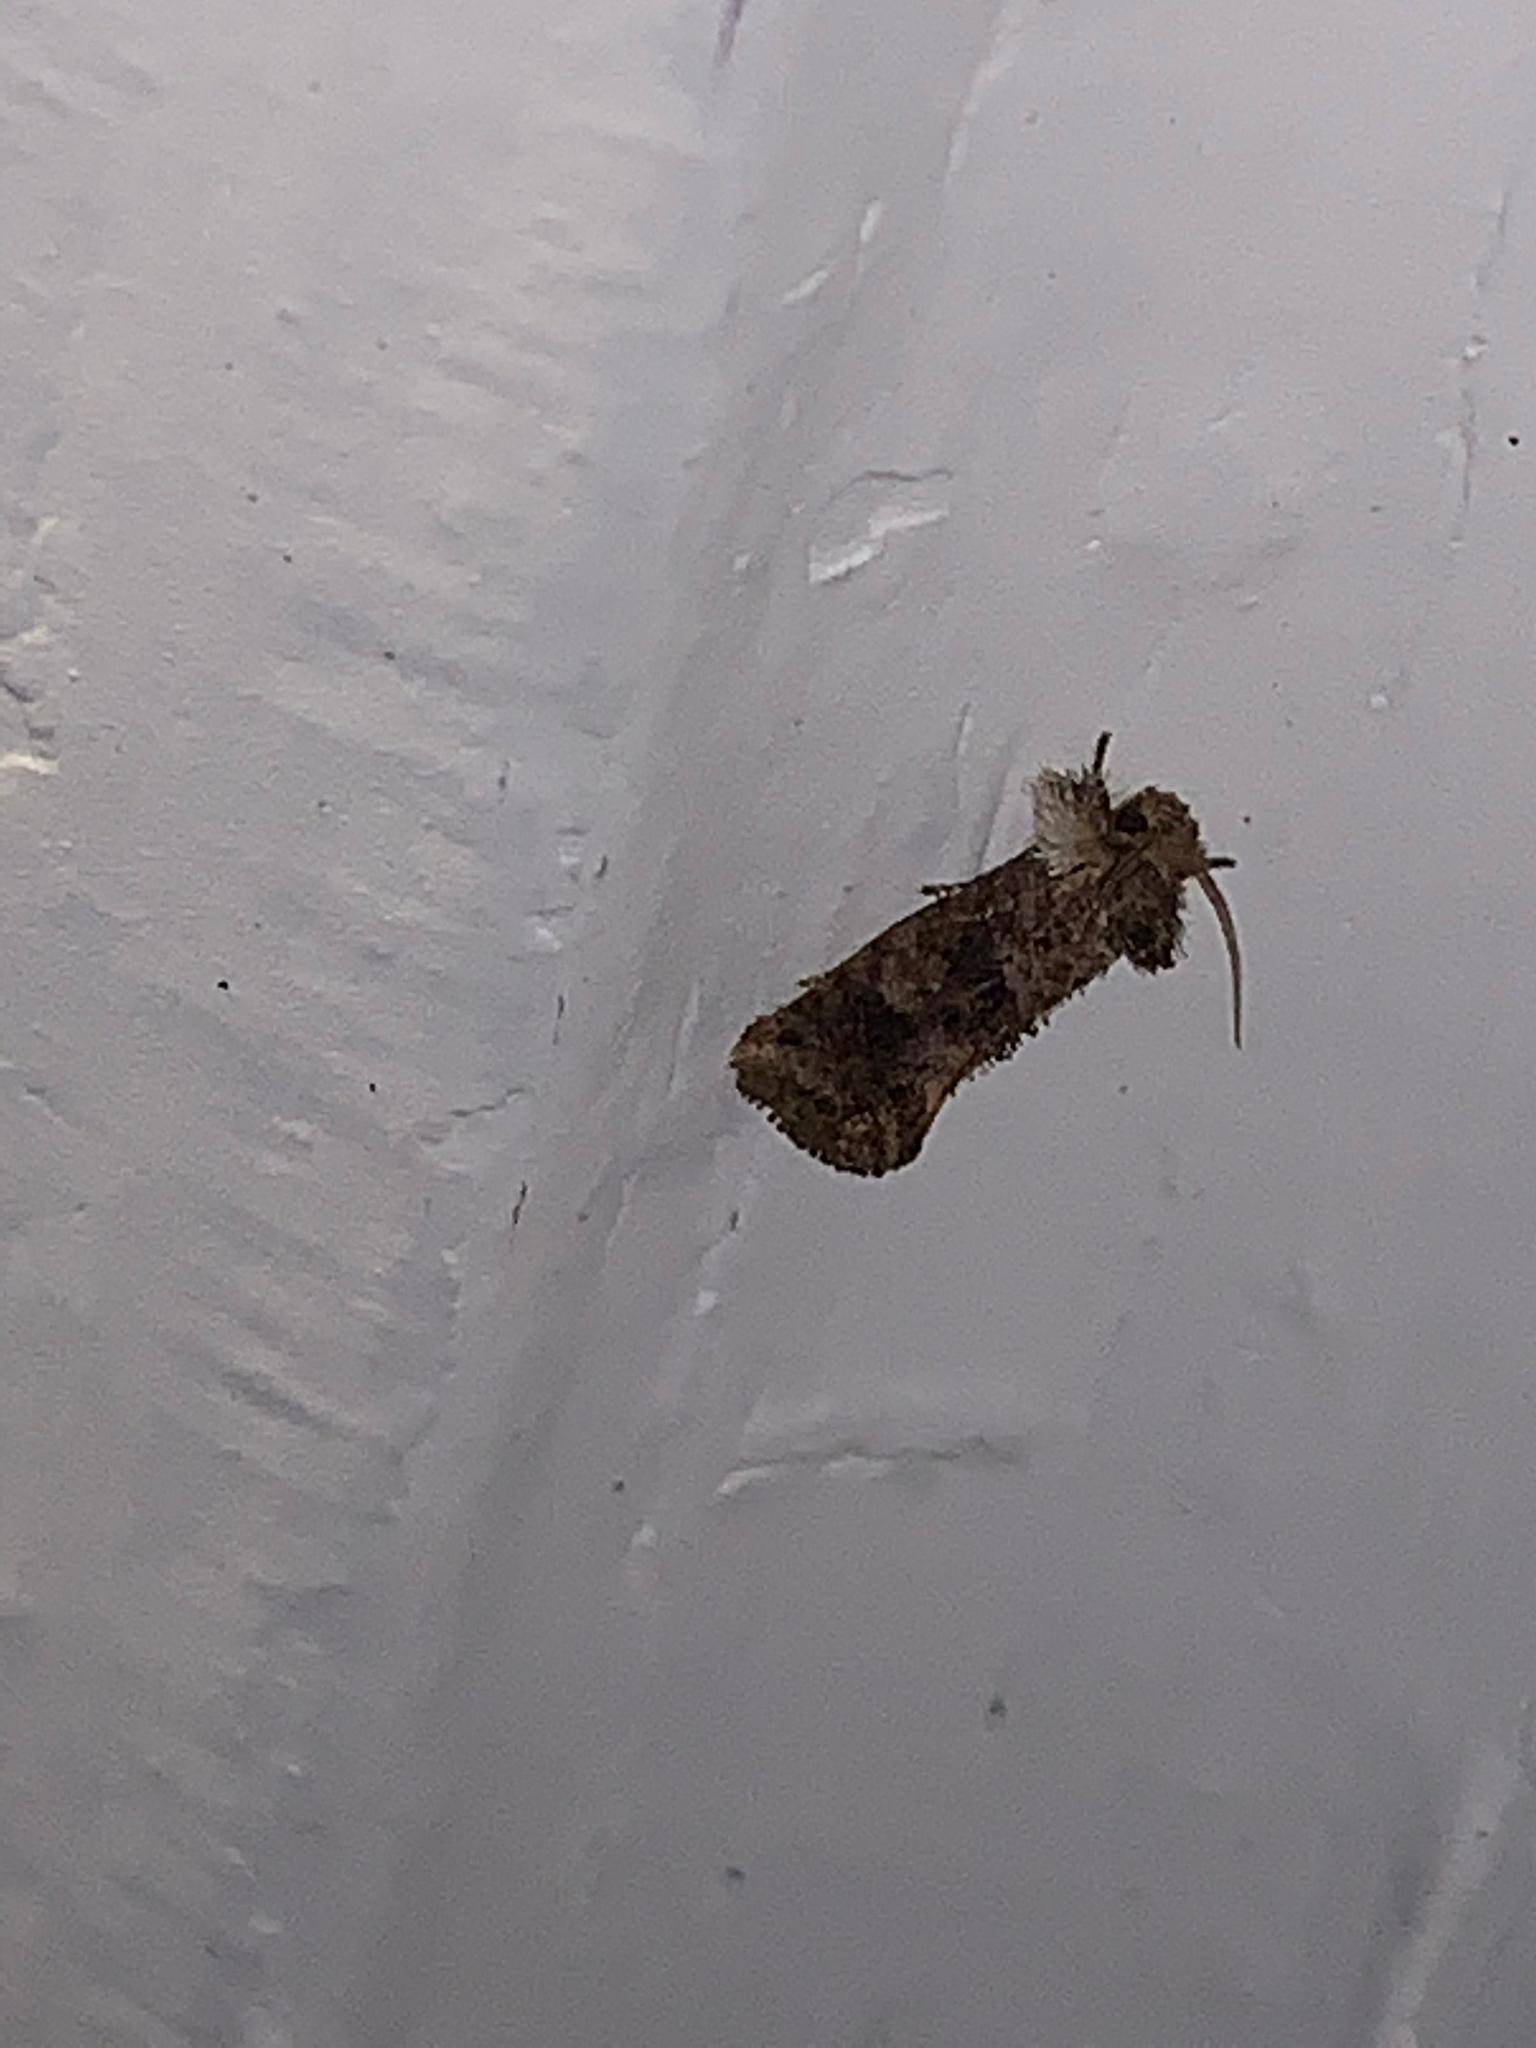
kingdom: Animalia
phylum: Arthropoda
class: Insecta
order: Lepidoptera
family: Tineidae
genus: Acrolophus
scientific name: Acrolophus panamae
